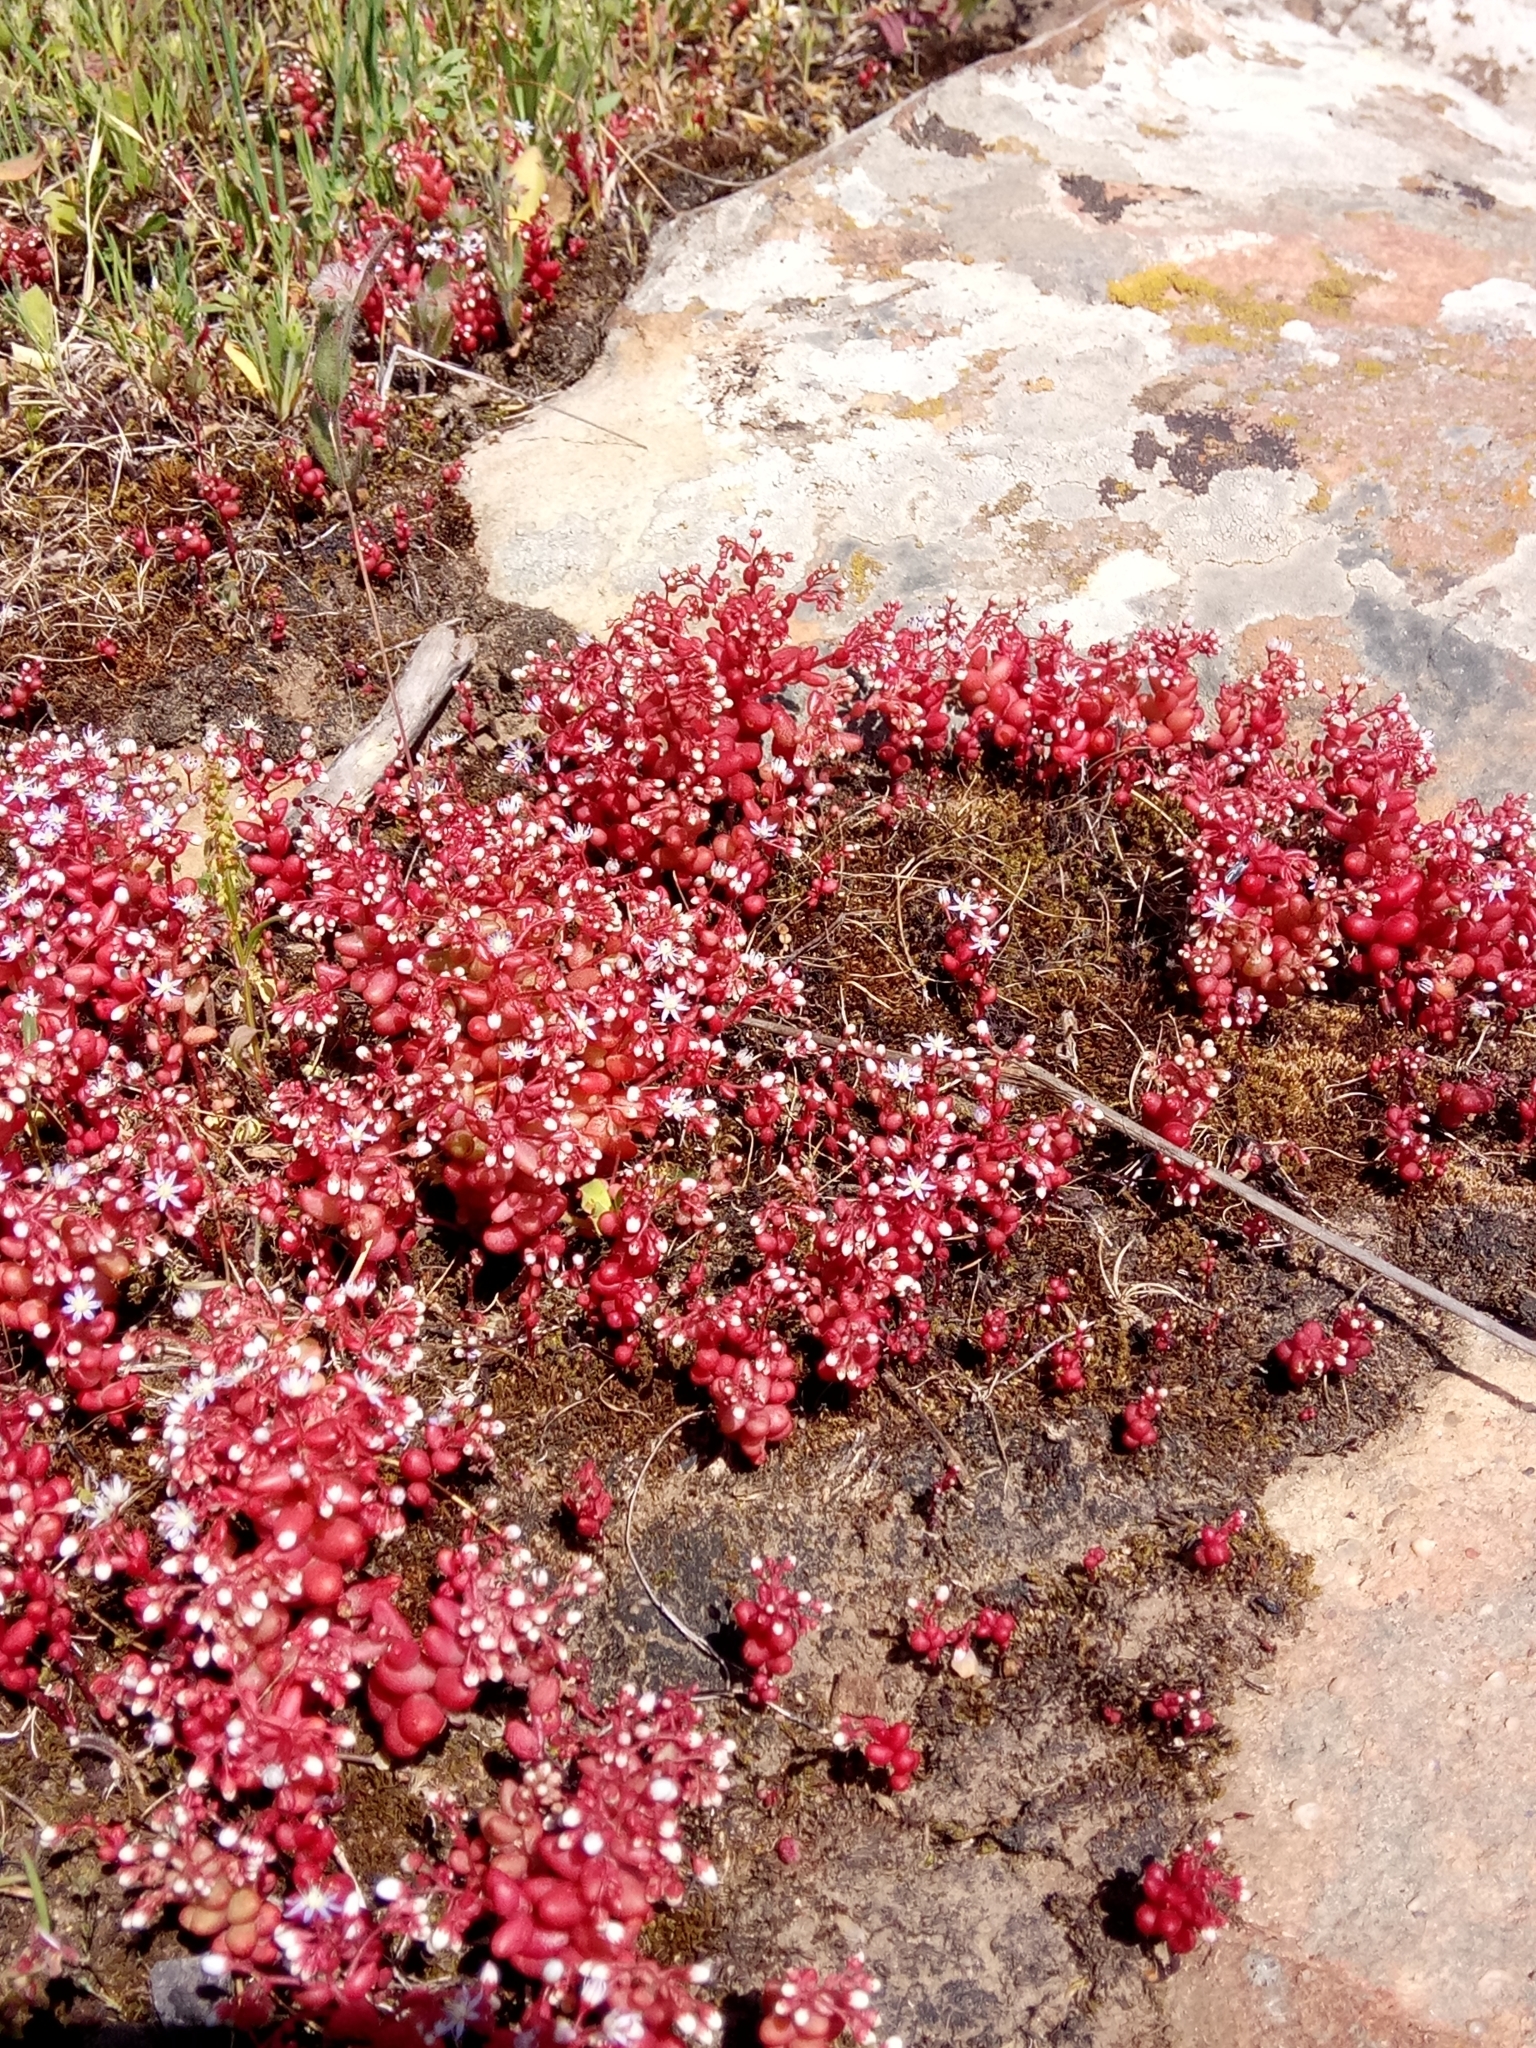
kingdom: Plantae
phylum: Tracheophyta
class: Magnoliopsida
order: Saxifragales
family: Crassulaceae
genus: Sedum
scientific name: Sedum caeruleum
